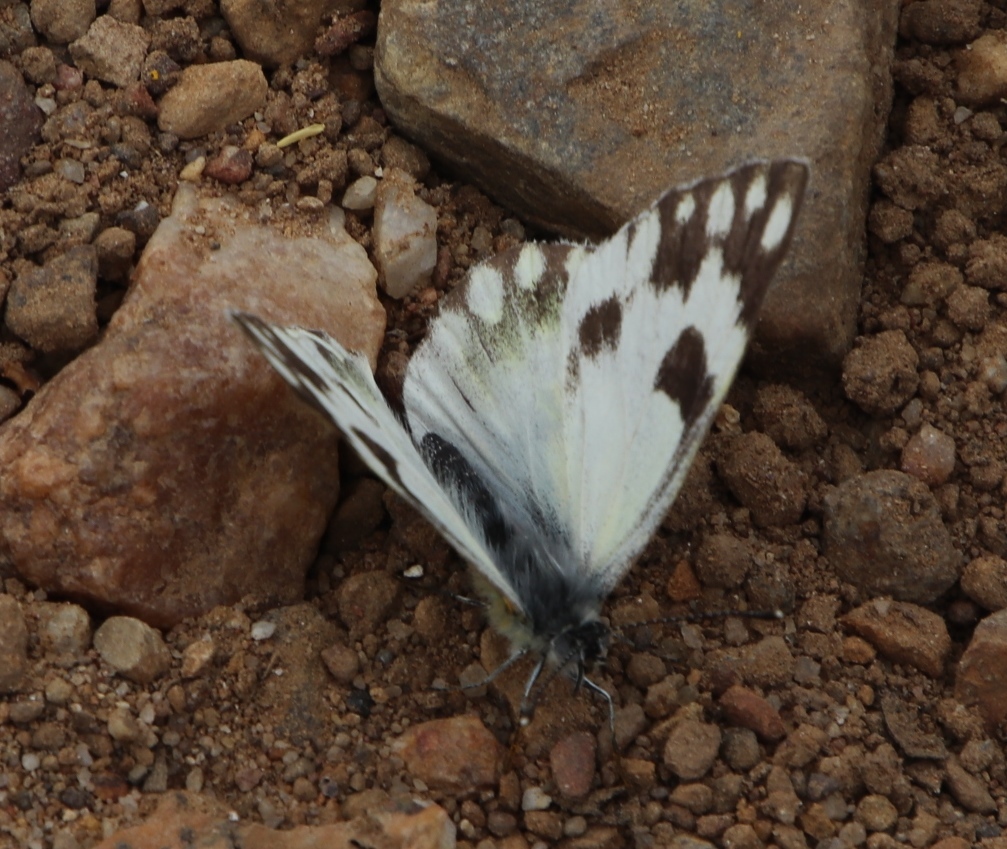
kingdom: Animalia
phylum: Arthropoda
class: Insecta
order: Lepidoptera
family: Pieridae
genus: Pontia
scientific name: Pontia helice
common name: Meadow white
